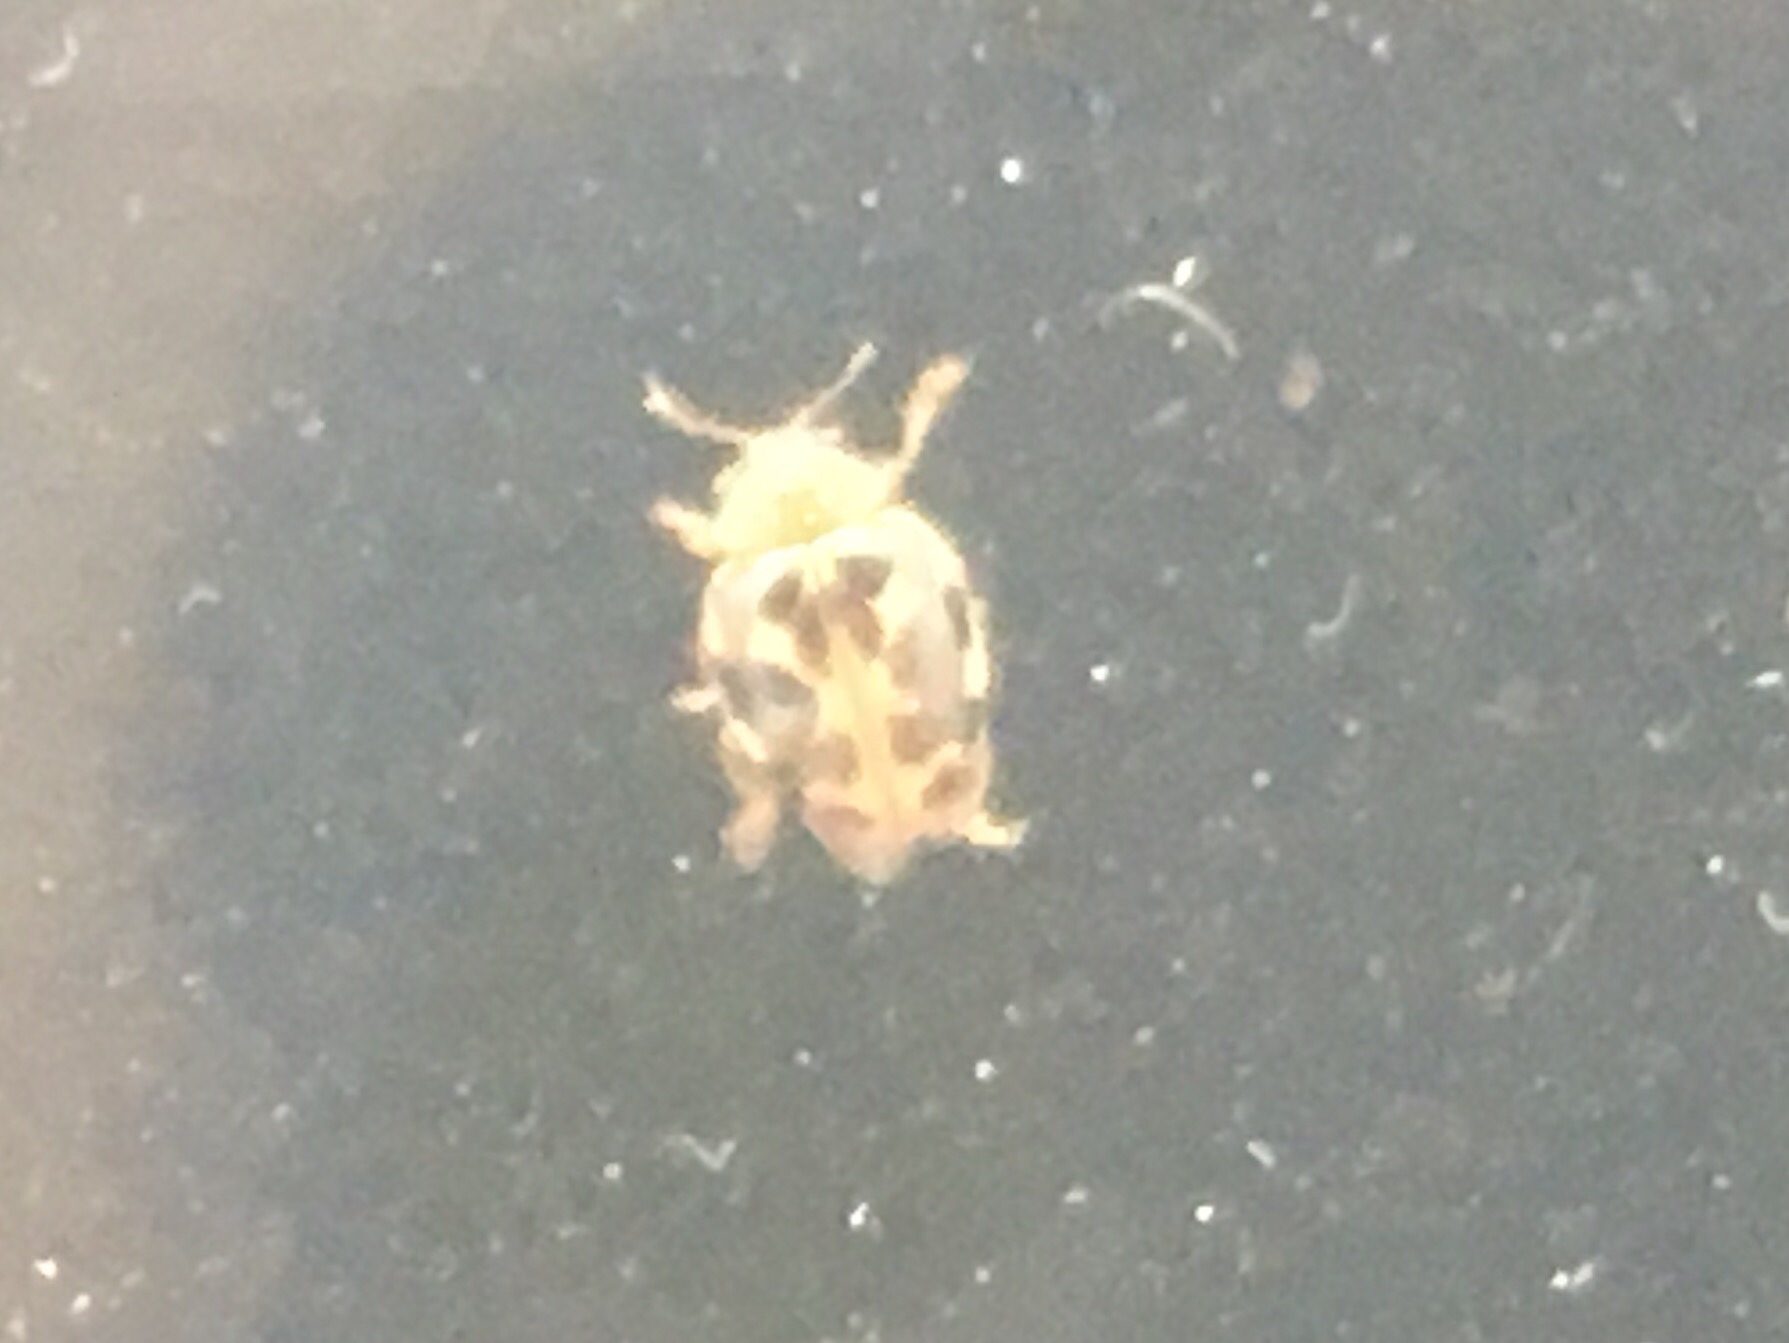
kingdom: Animalia
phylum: Arthropoda
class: Insecta
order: Coleoptera
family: Coccinellidae
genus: Psyllobora
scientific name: Psyllobora vigintimaculata
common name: Ladybird beetle
